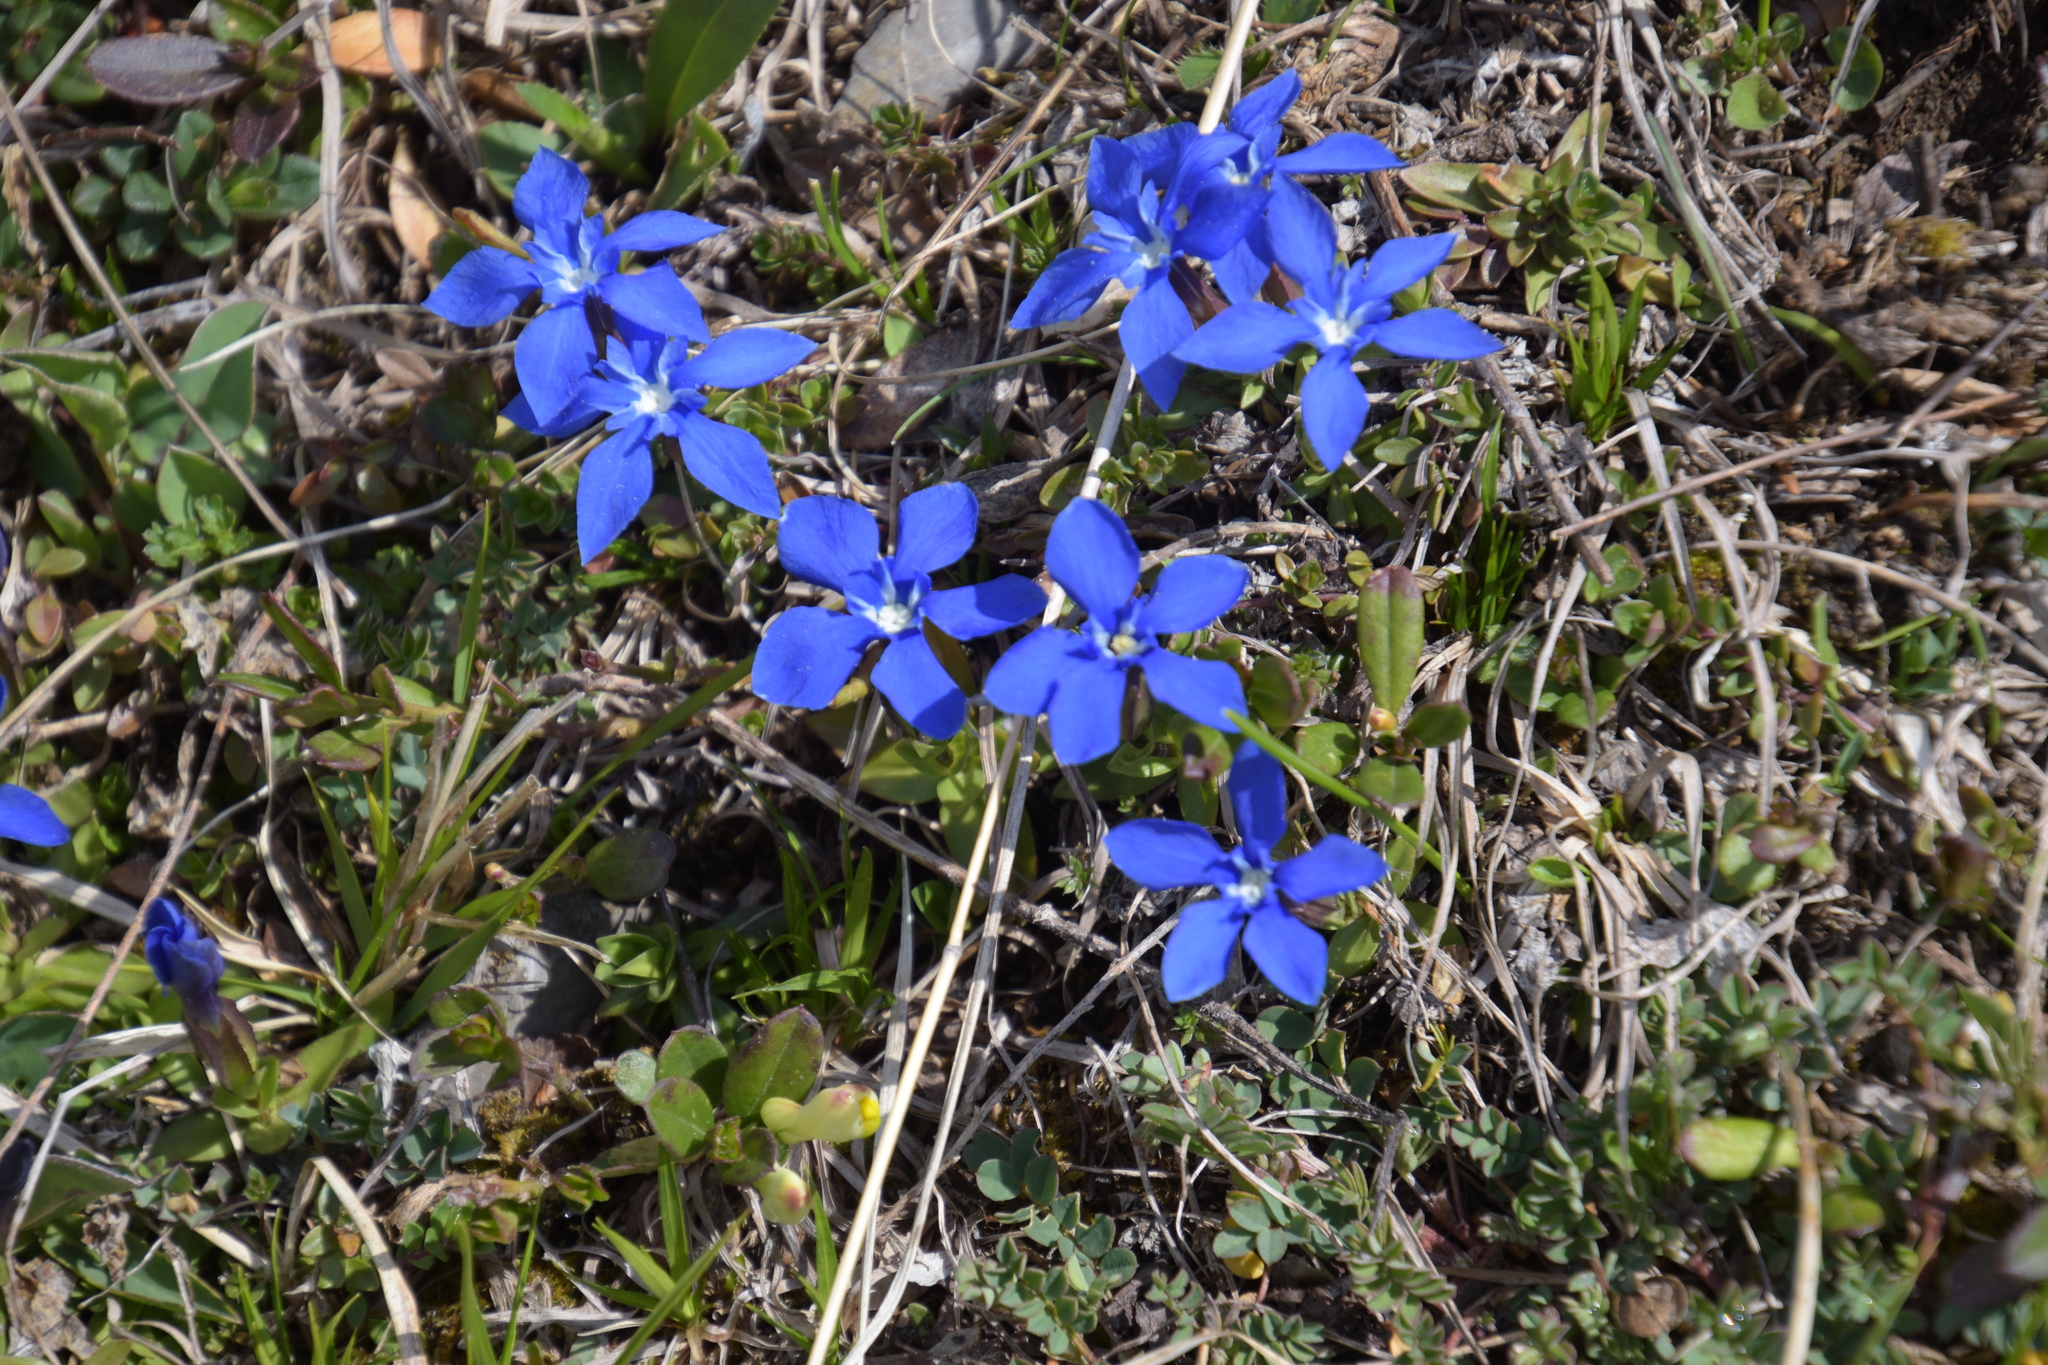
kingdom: Plantae
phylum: Tracheophyta
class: Magnoliopsida
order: Gentianales
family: Gentianaceae
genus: Gentiana
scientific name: Gentiana verna
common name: Spring gentian
